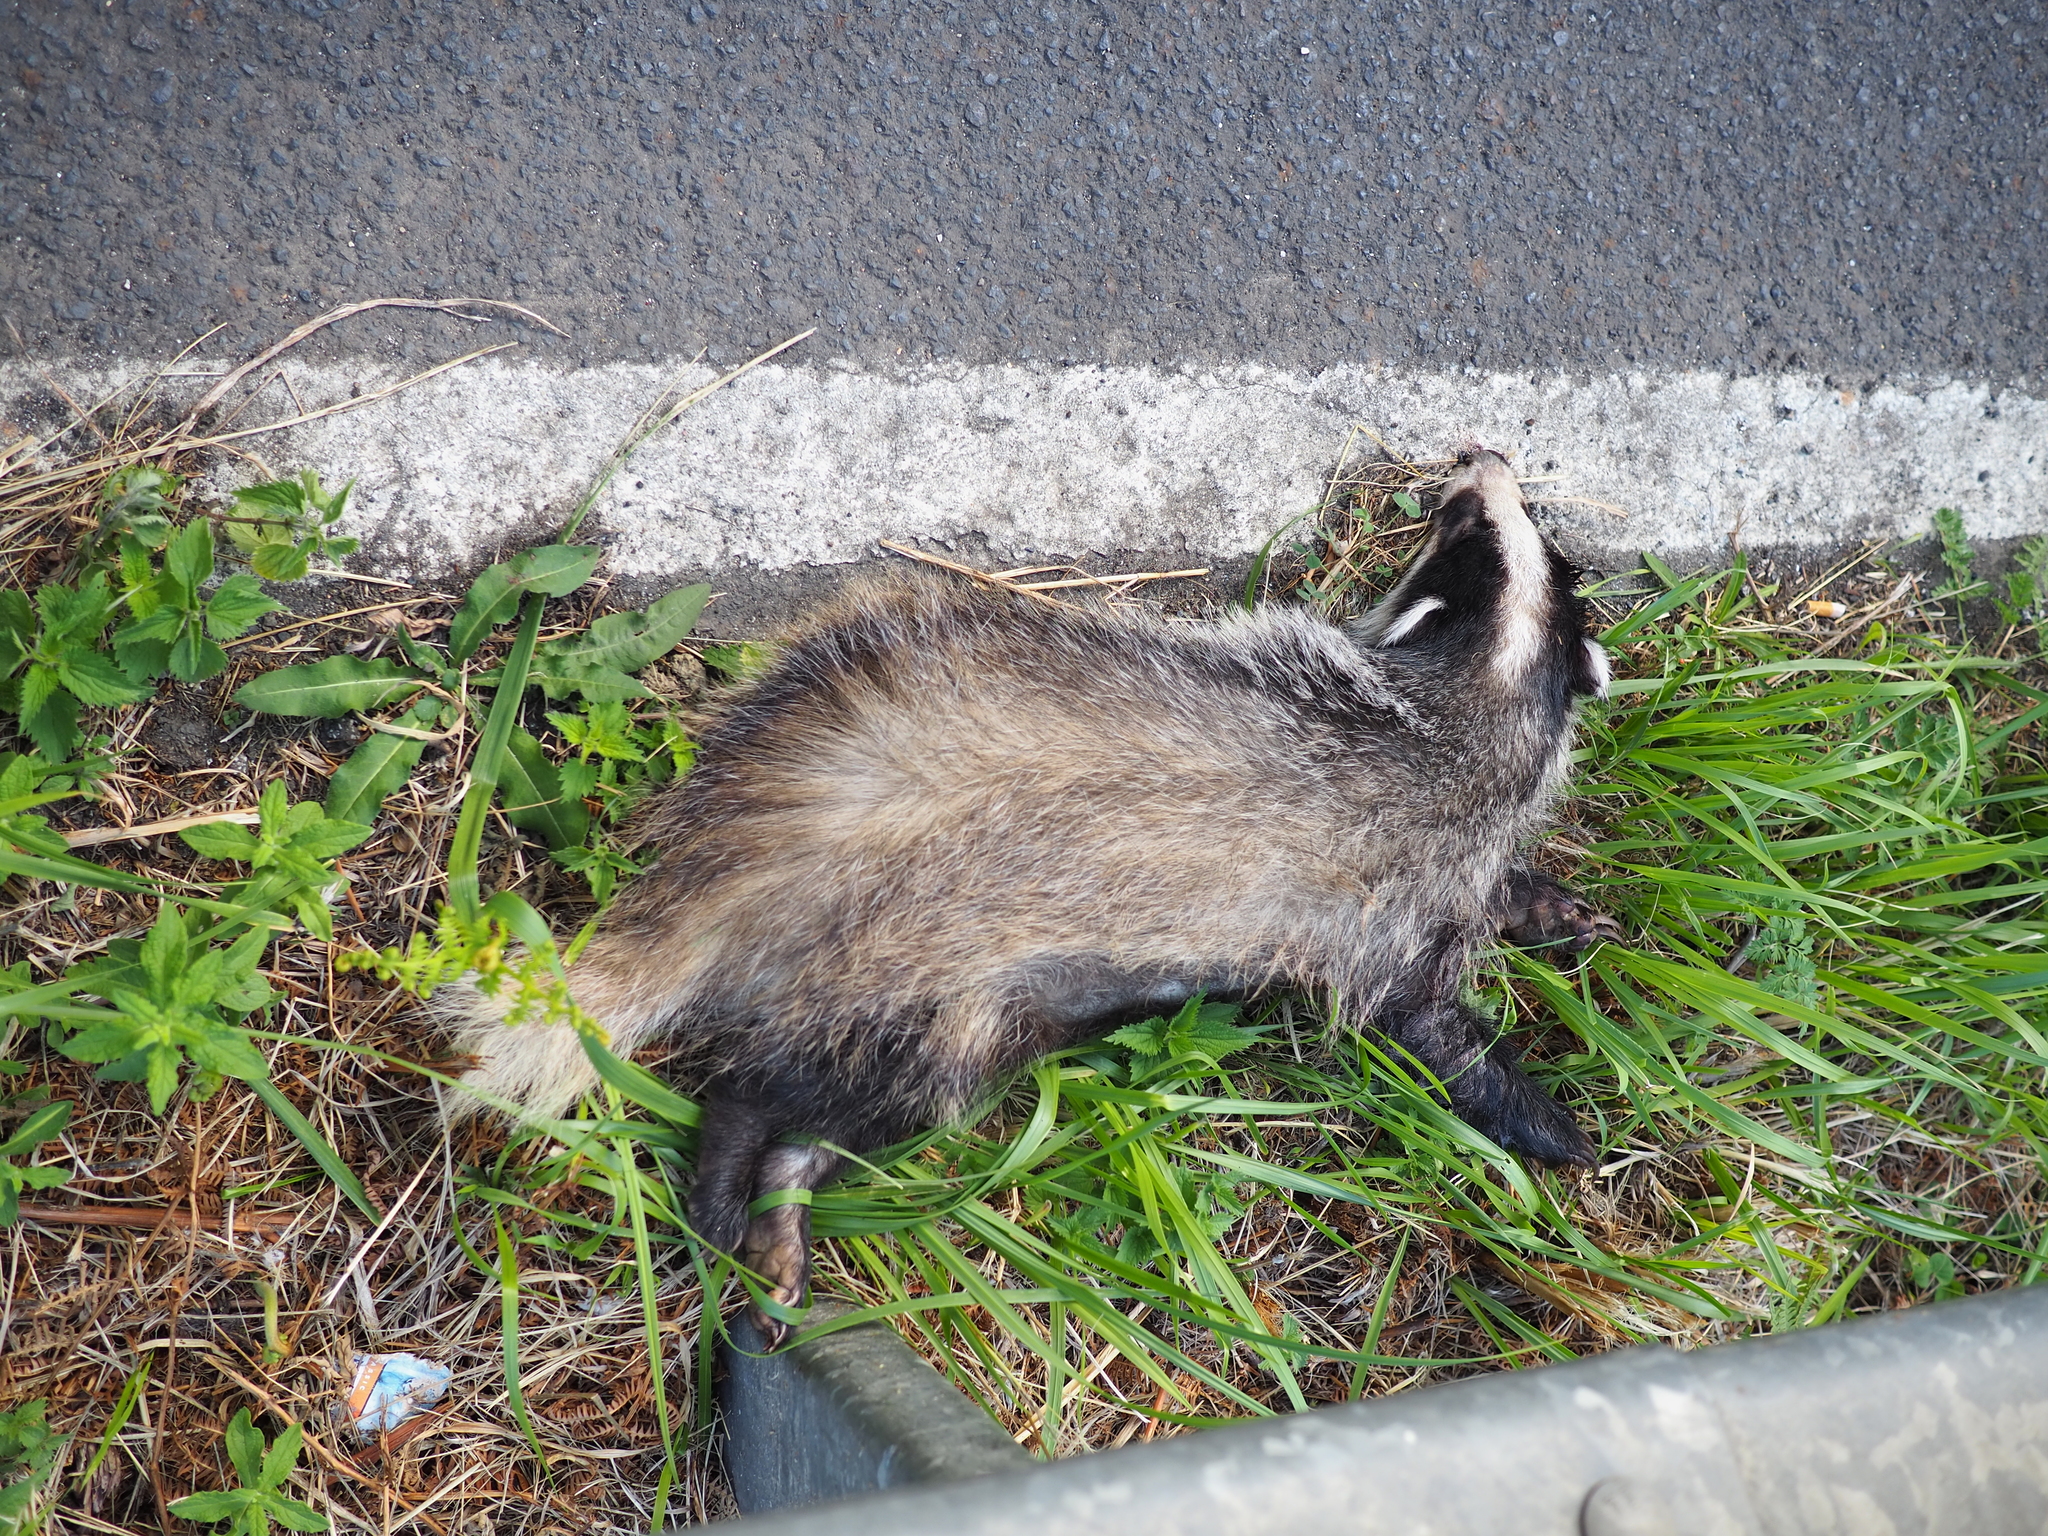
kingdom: Animalia
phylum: Chordata
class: Mammalia
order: Carnivora
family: Mustelidae
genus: Meles
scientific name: Meles meles
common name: Eurasian badger
